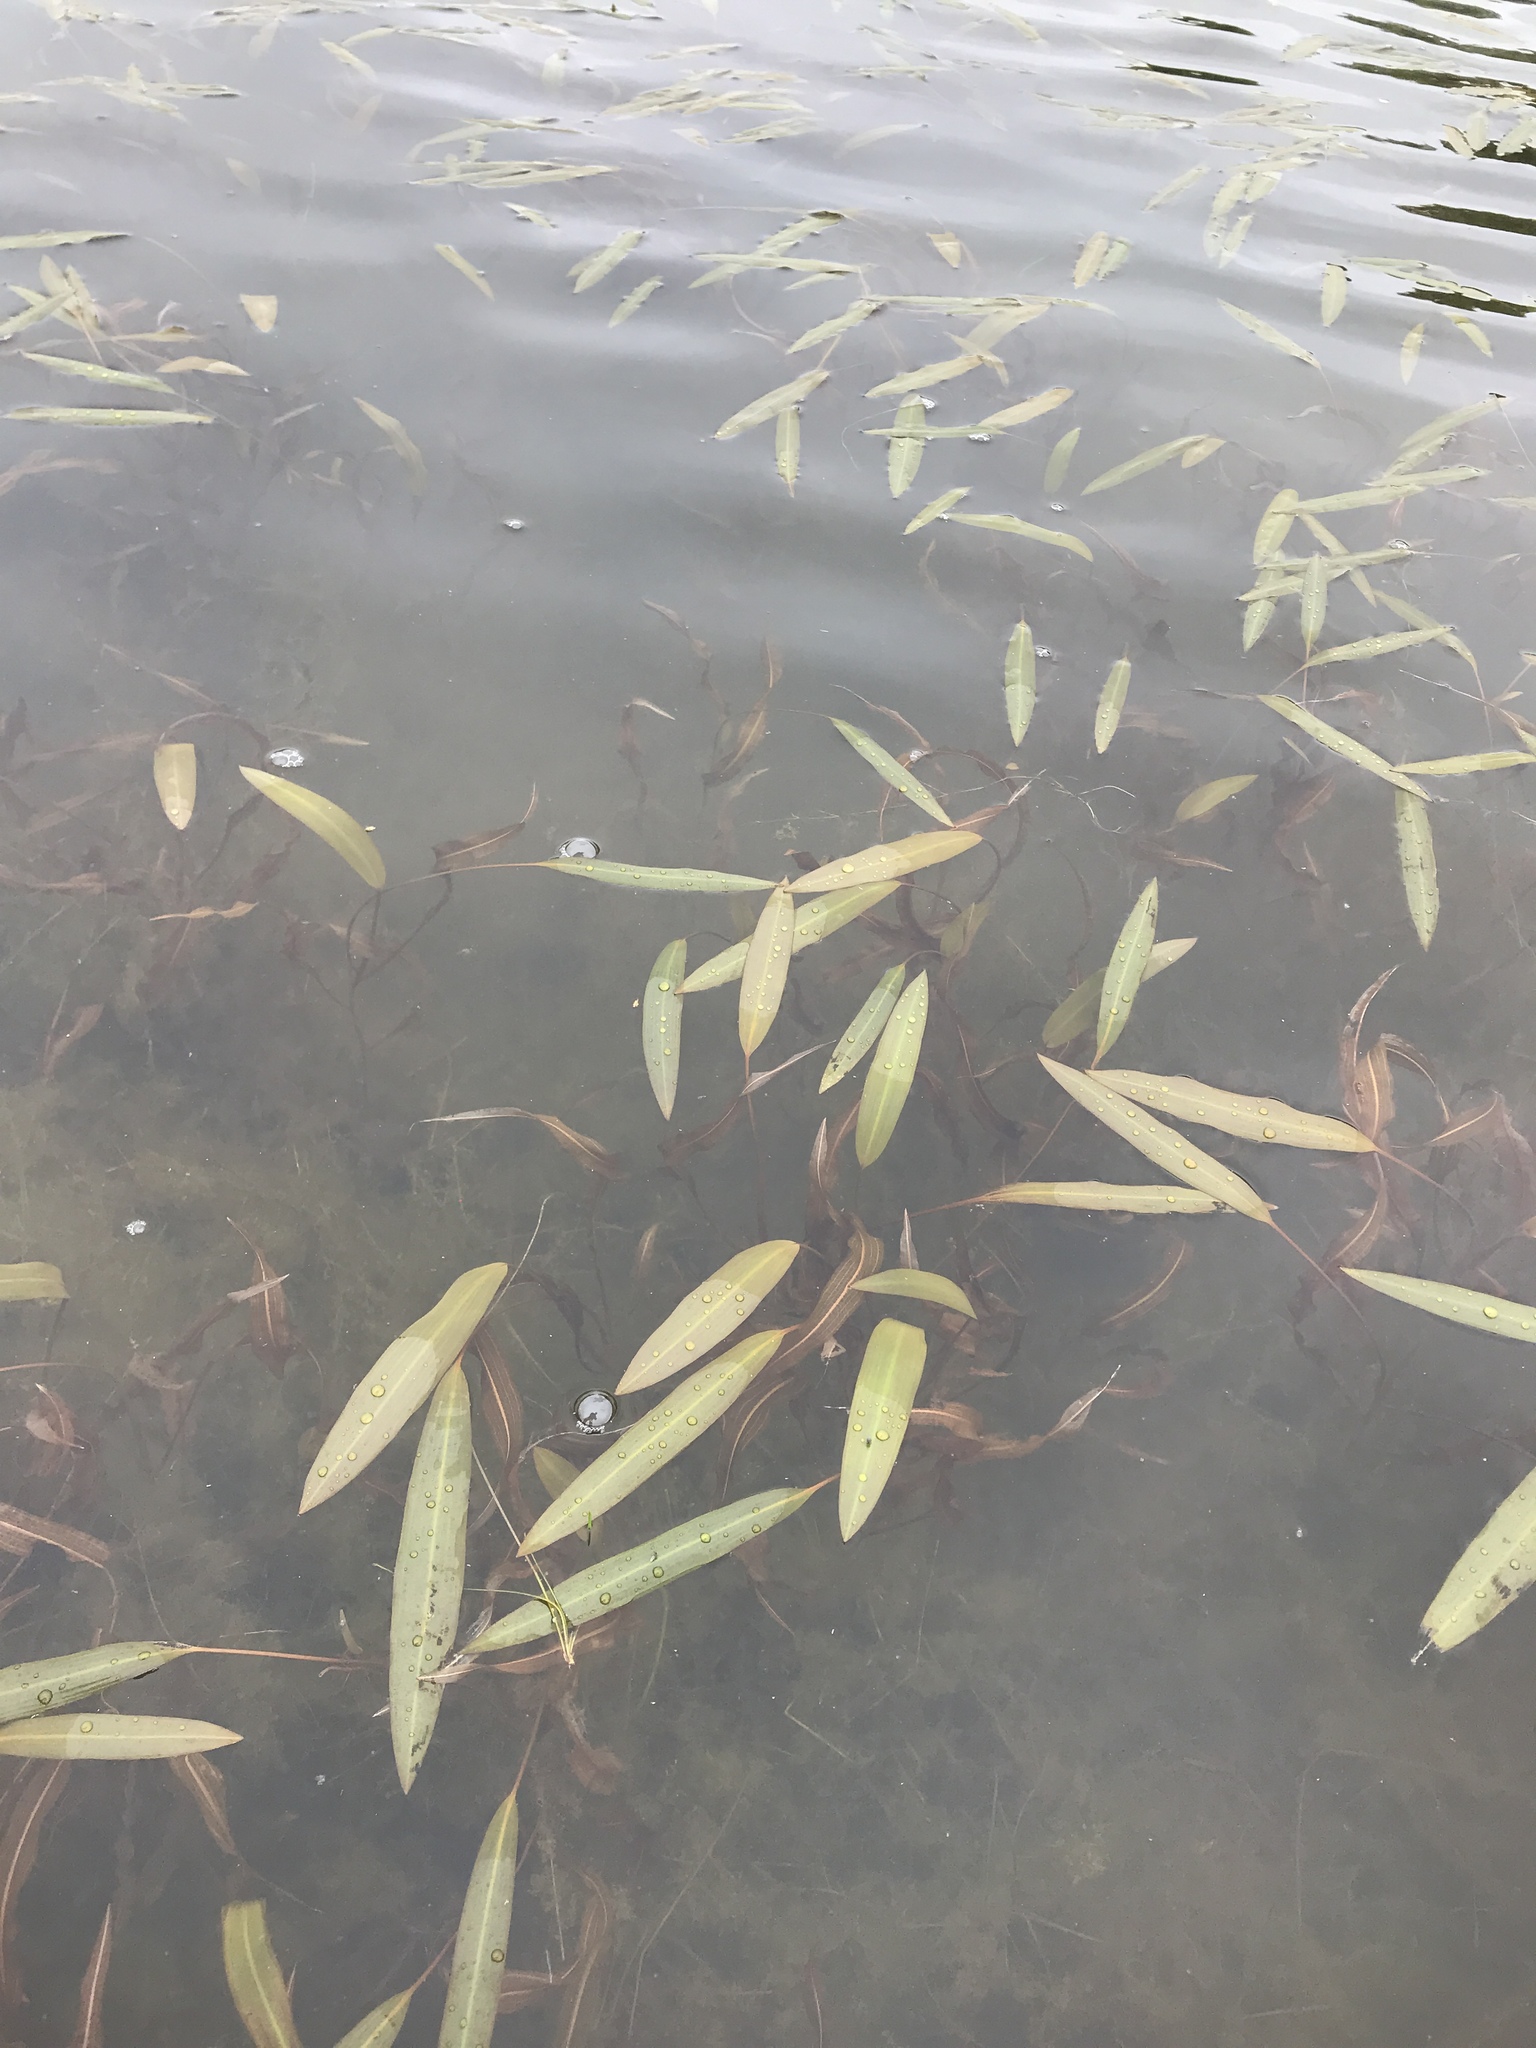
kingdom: Plantae
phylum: Tracheophyta
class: Liliopsida
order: Alismatales
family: Potamogetonaceae
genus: Potamogeton
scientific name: Potamogeton nodosus
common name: Loddon pondweed
